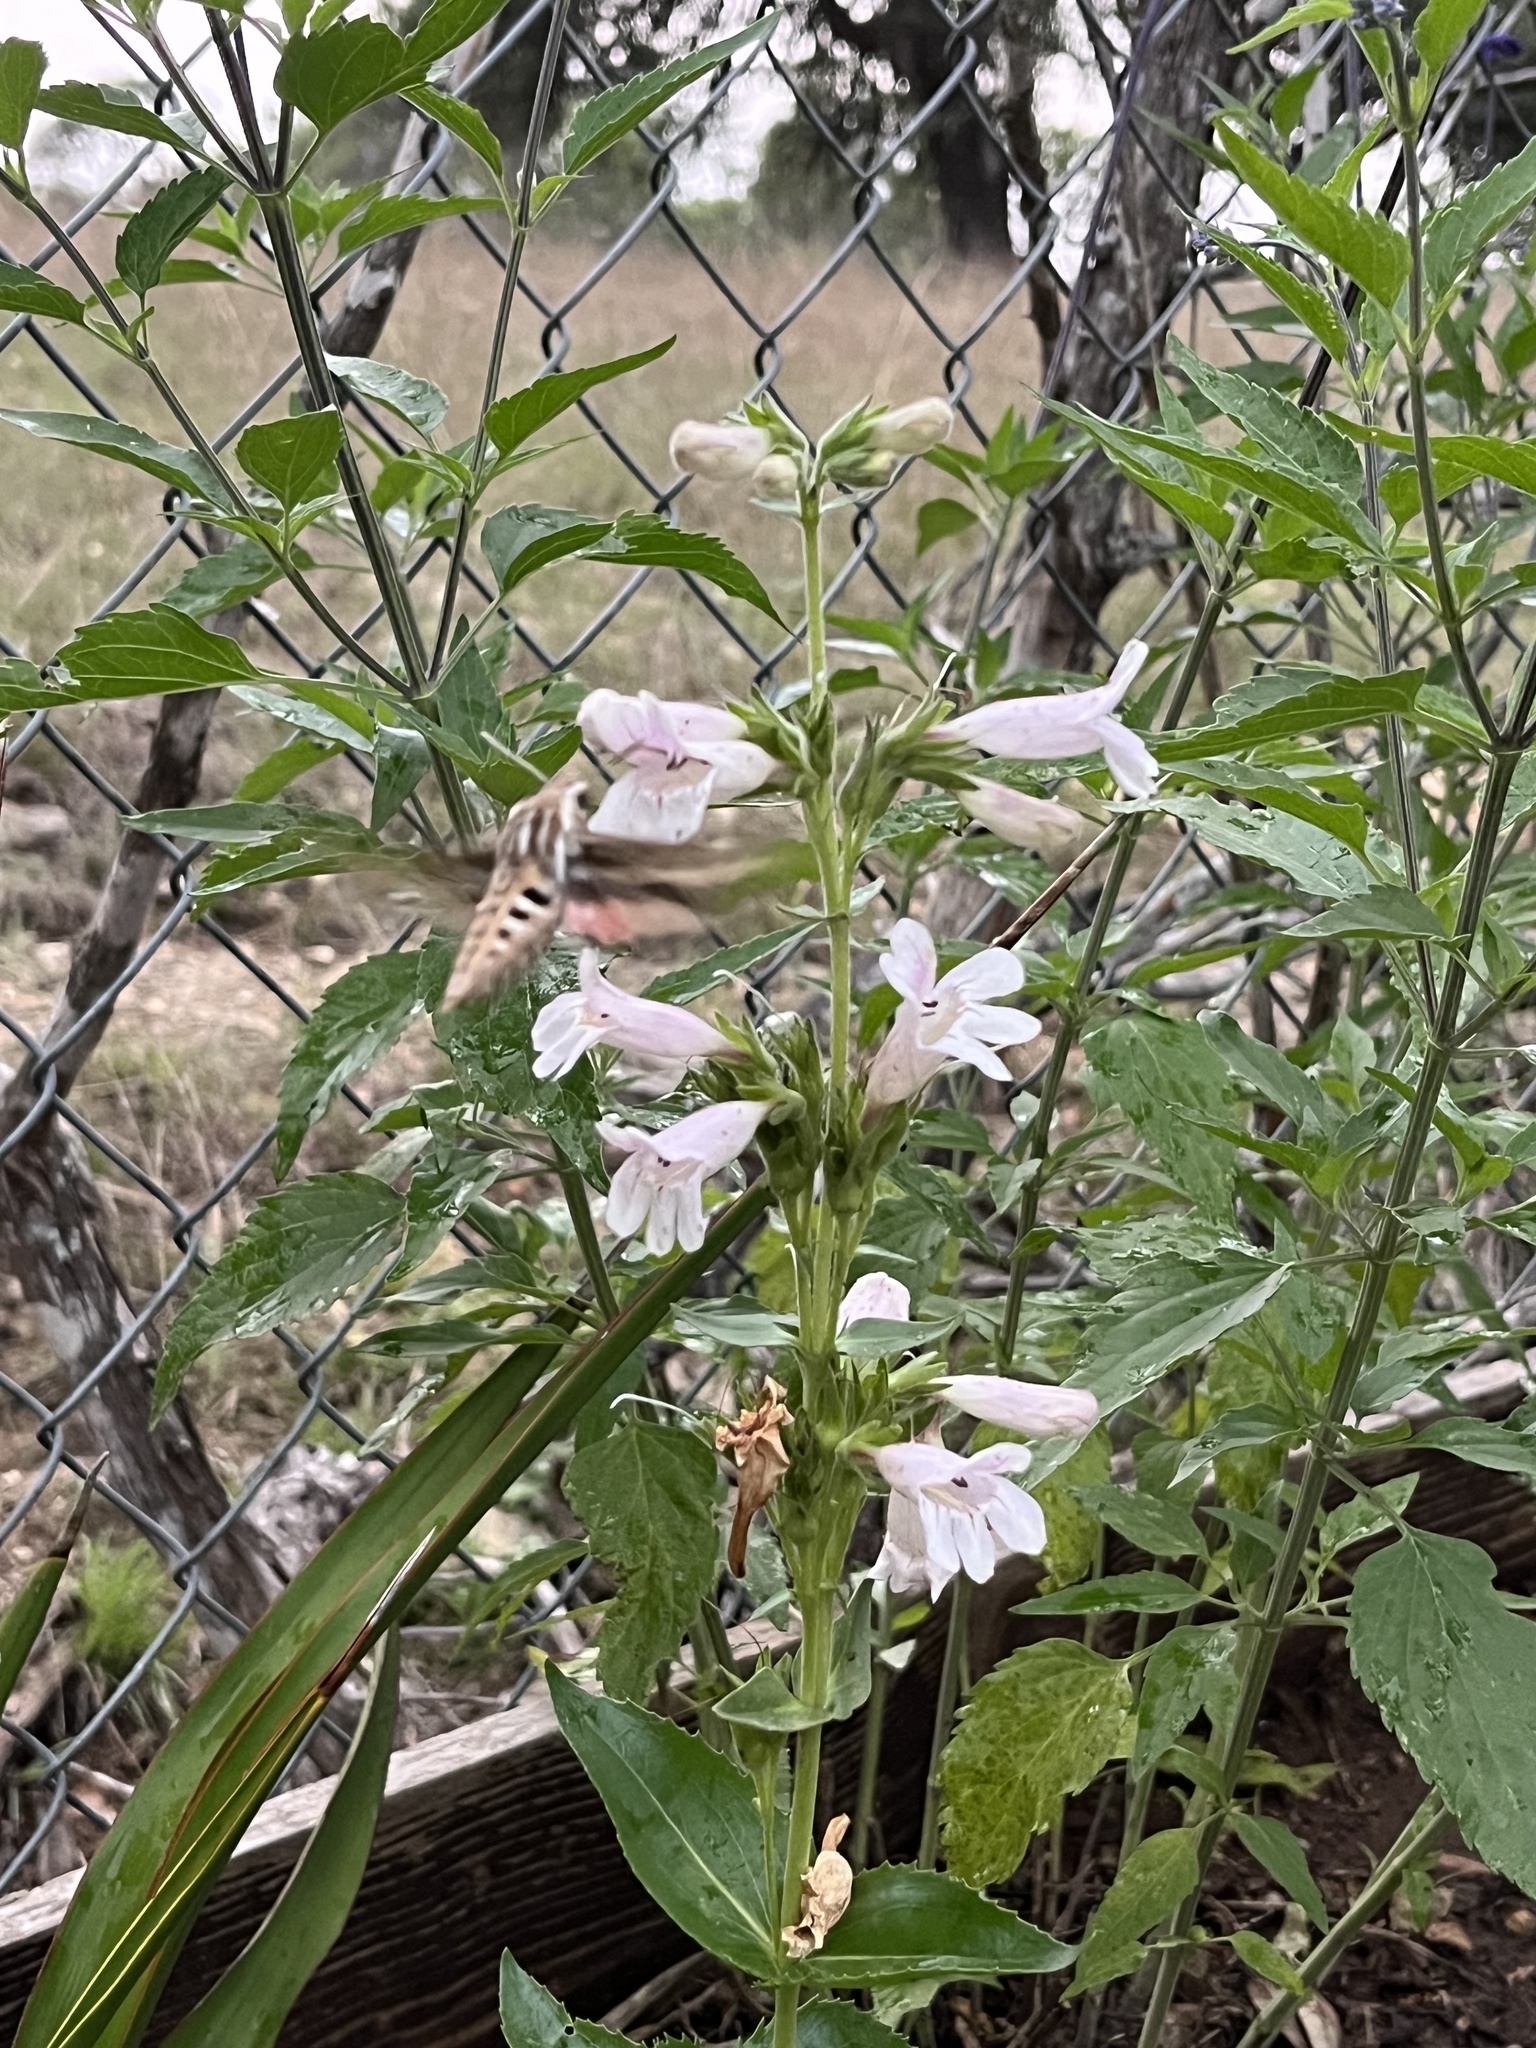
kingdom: Animalia
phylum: Arthropoda
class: Insecta
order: Lepidoptera
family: Sphingidae
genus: Hyles
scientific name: Hyles lineata
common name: White-lined sphinx
